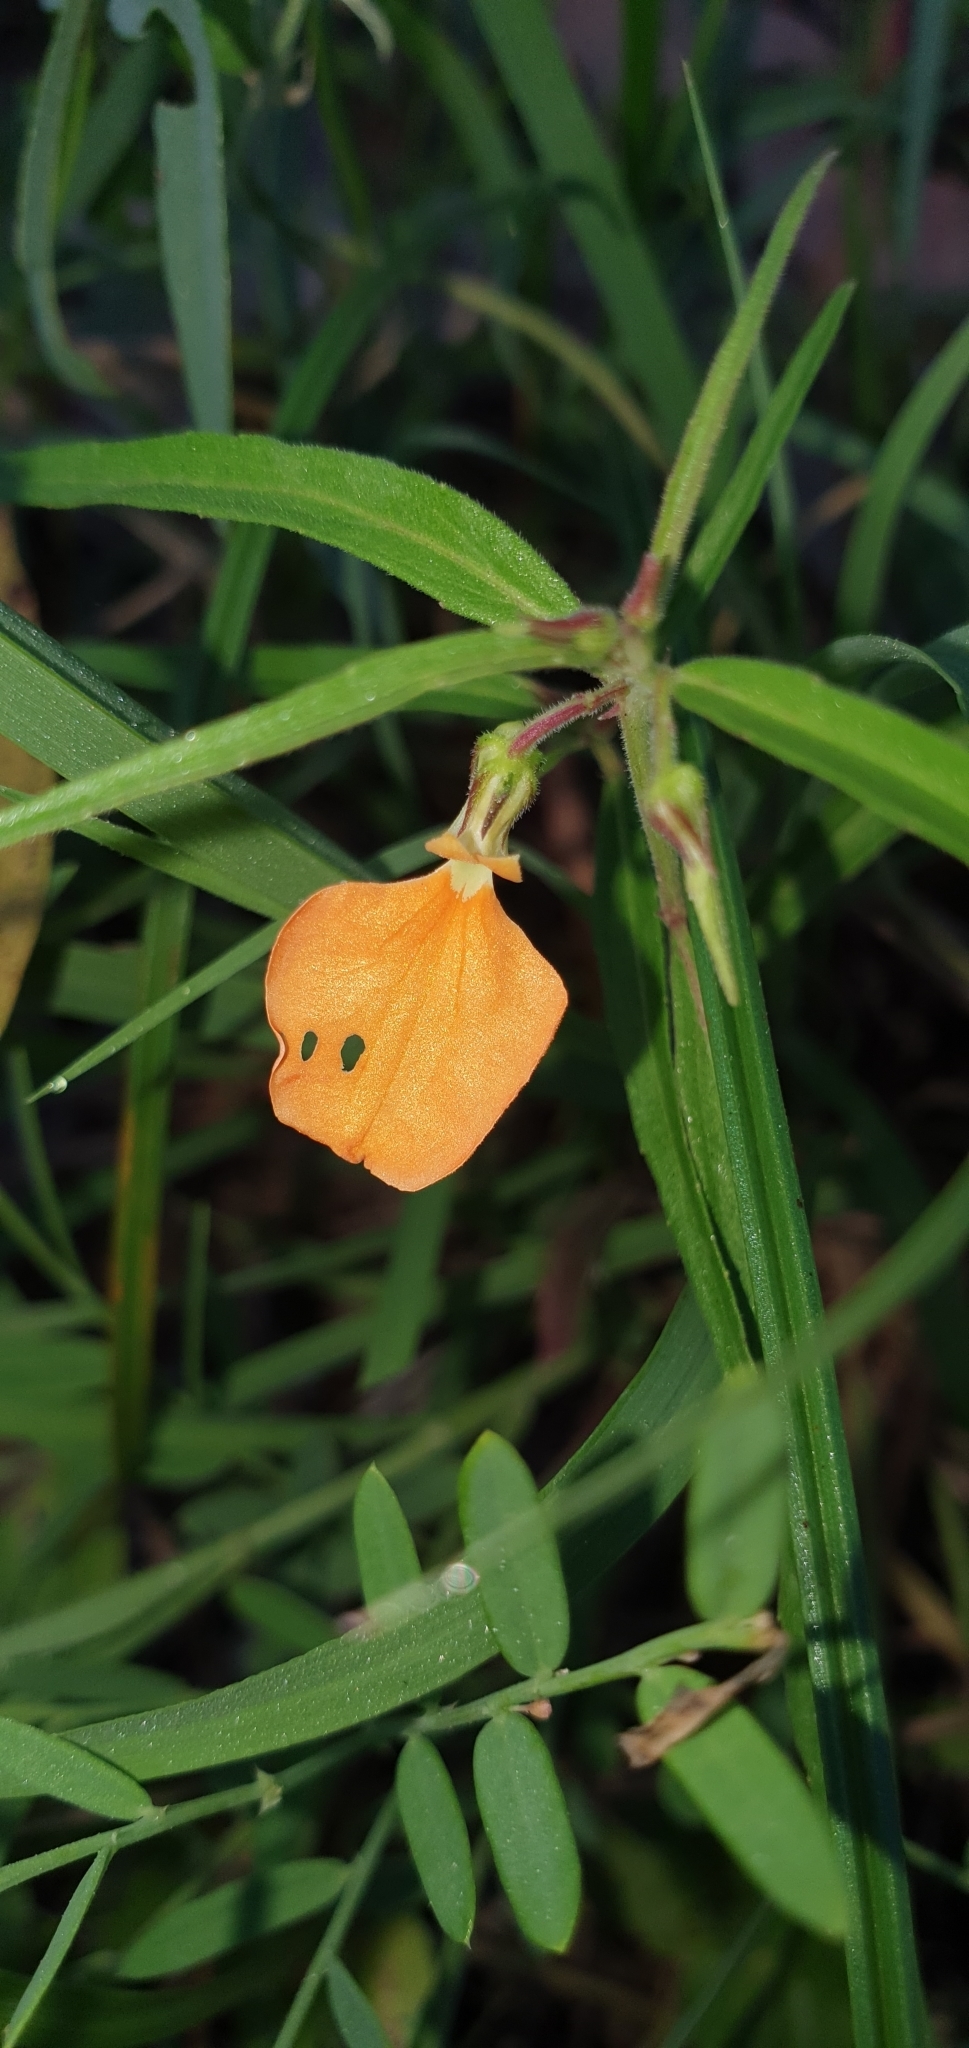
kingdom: Plantae
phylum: Tracheophyta
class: Magnoliopsida
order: Malpighiales
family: Violaceae
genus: Pigea
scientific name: Pigea stellarioides
